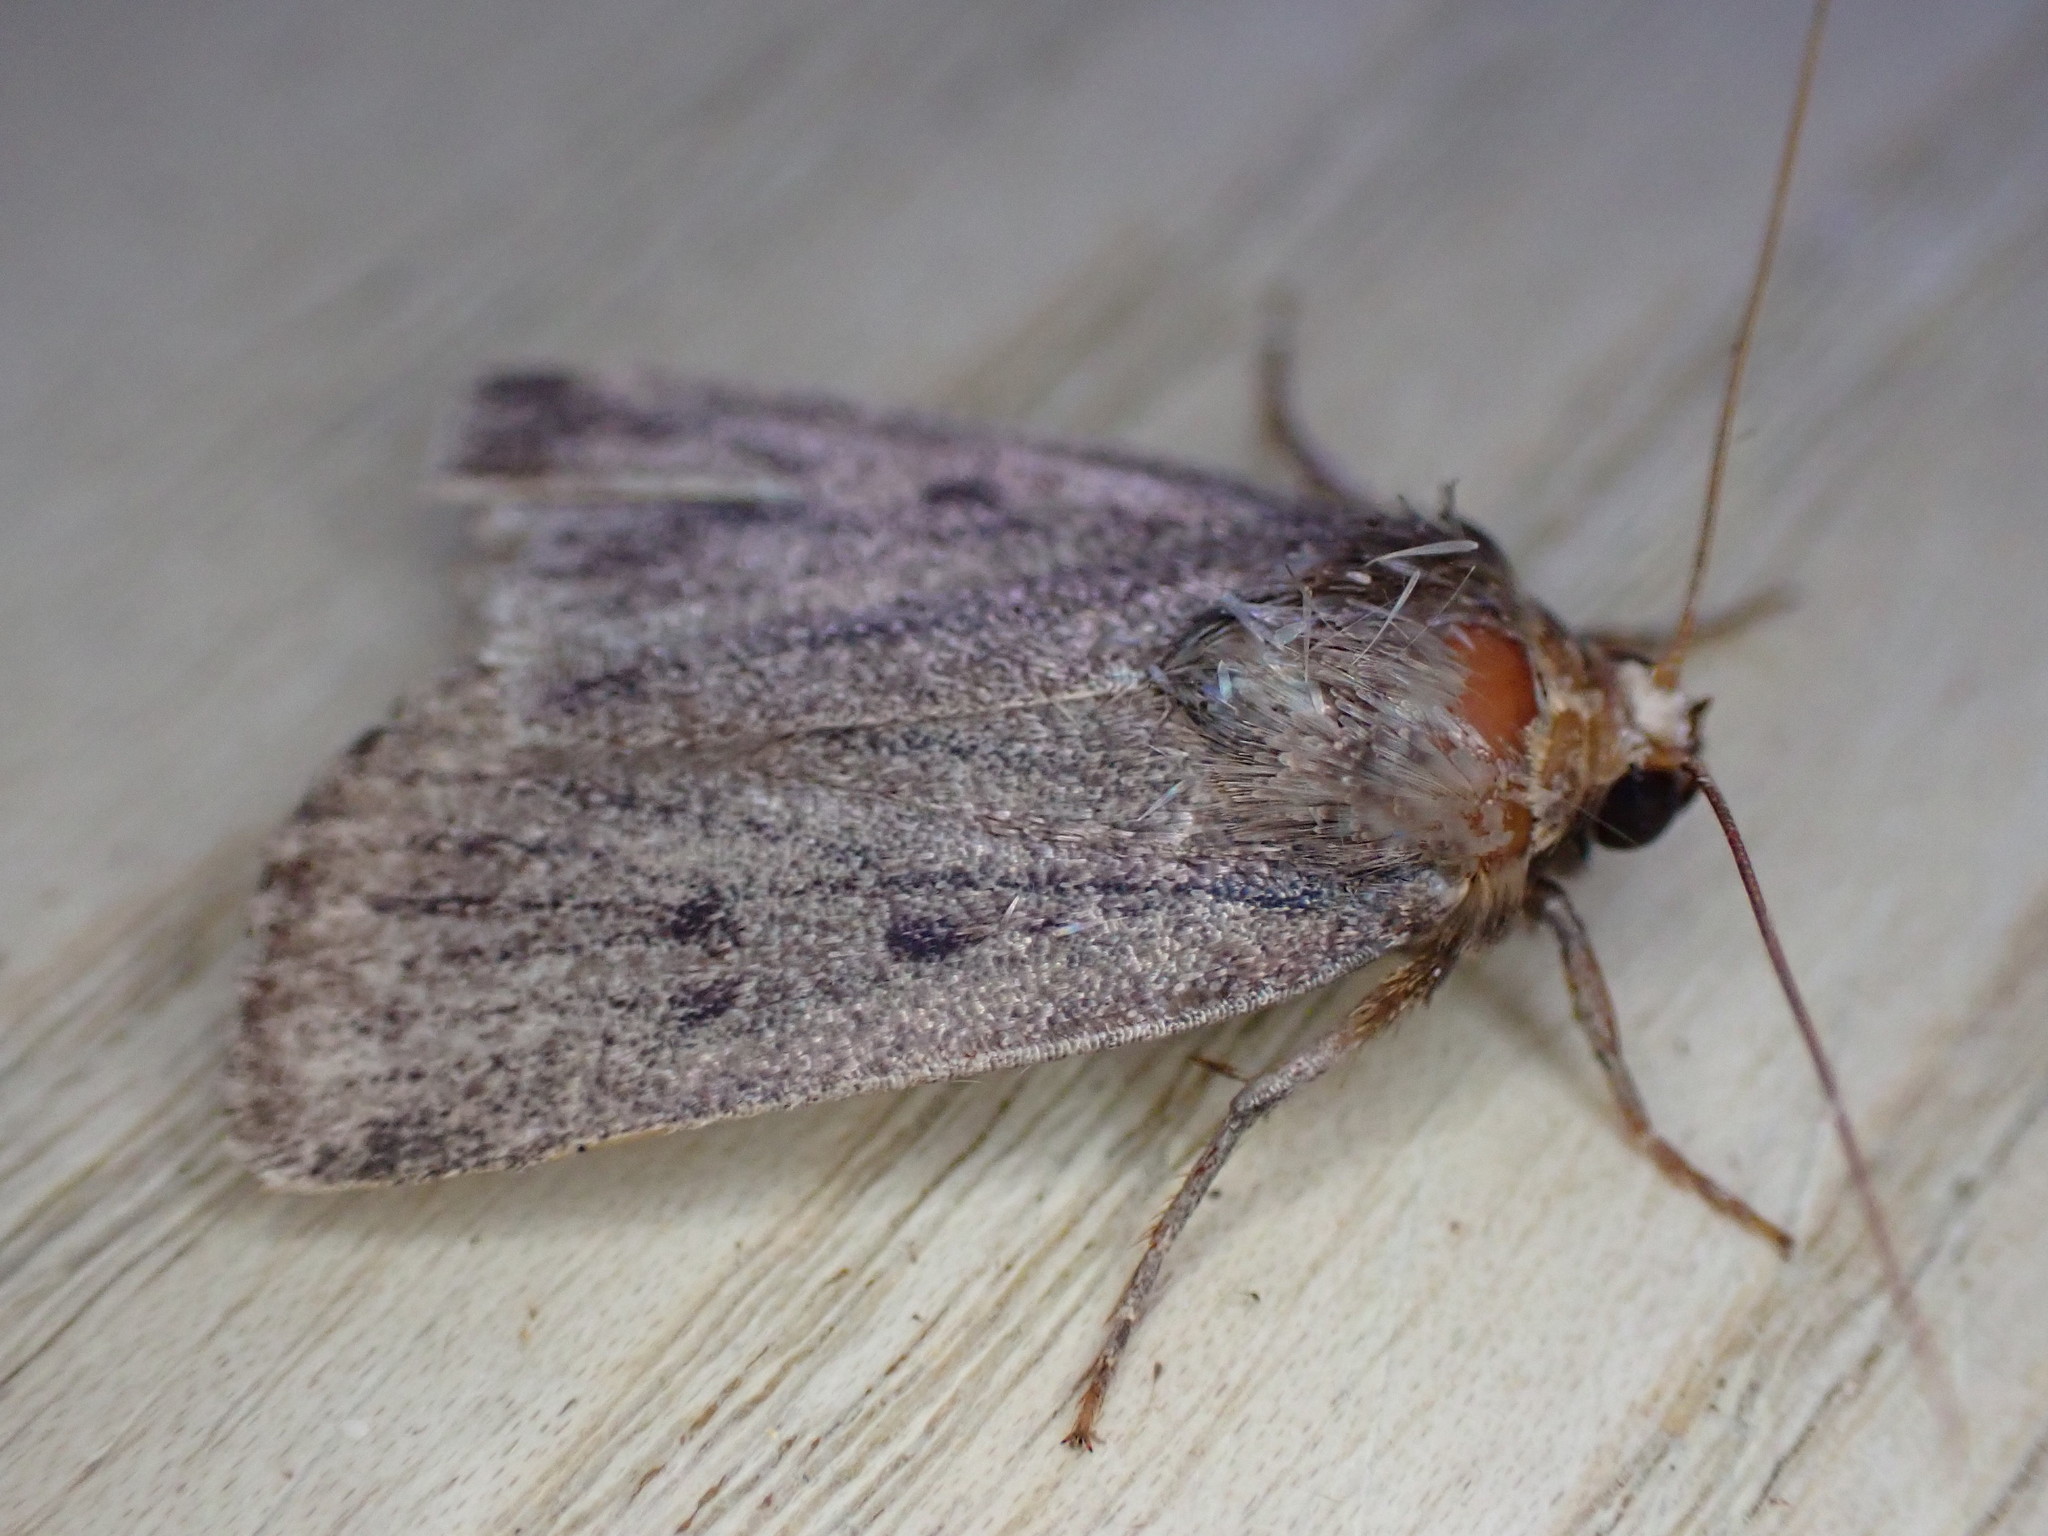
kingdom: Animalia
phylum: Arthropoda
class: Insecta
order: Lepidoptera
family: Noctuidae
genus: Amphipyra
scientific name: Amphipyra tragopoginis
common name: Mouse moth
